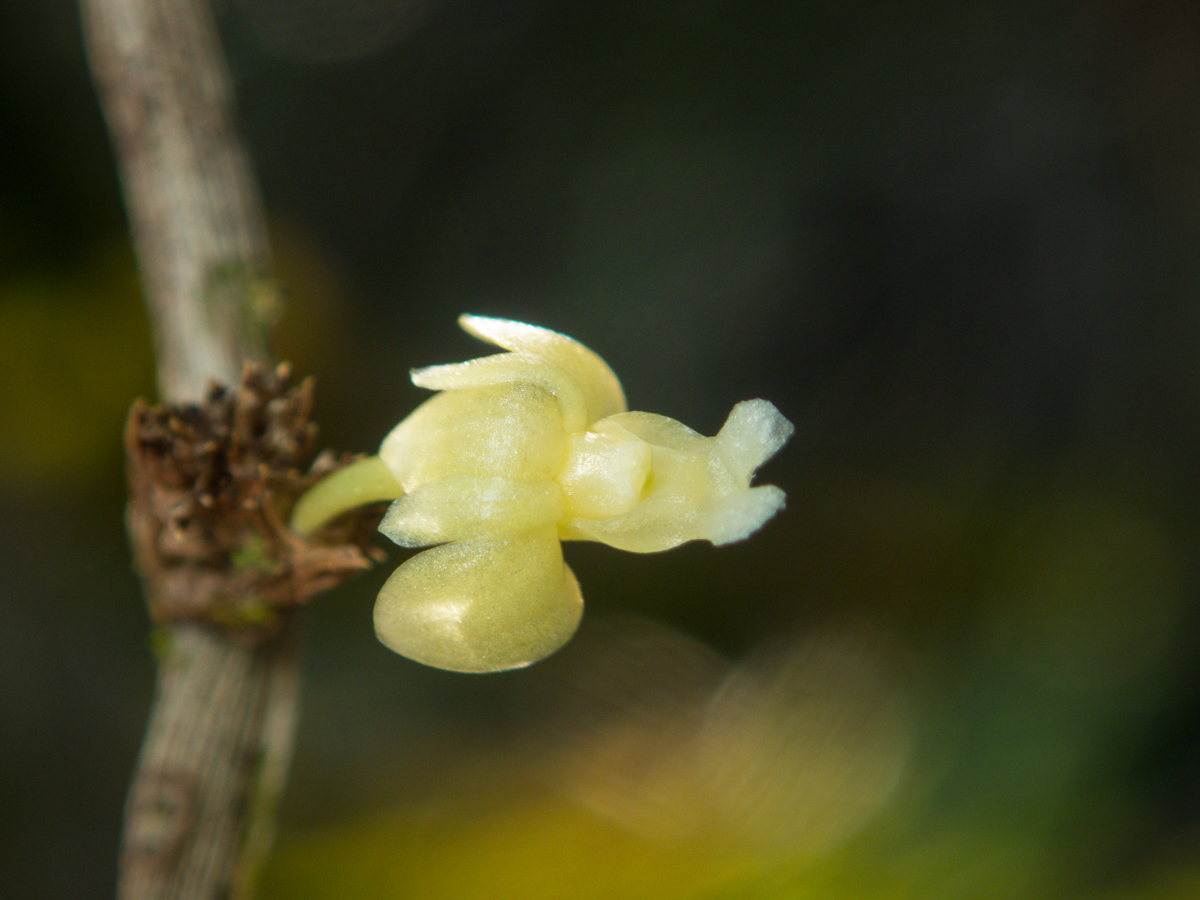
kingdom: Plantae
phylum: Tracheophyta
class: Liliopsida
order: Asparagales
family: Orchidaceae
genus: Dendrobium
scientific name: Dendrobium aloifolium
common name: Aloe-like dendrobium
